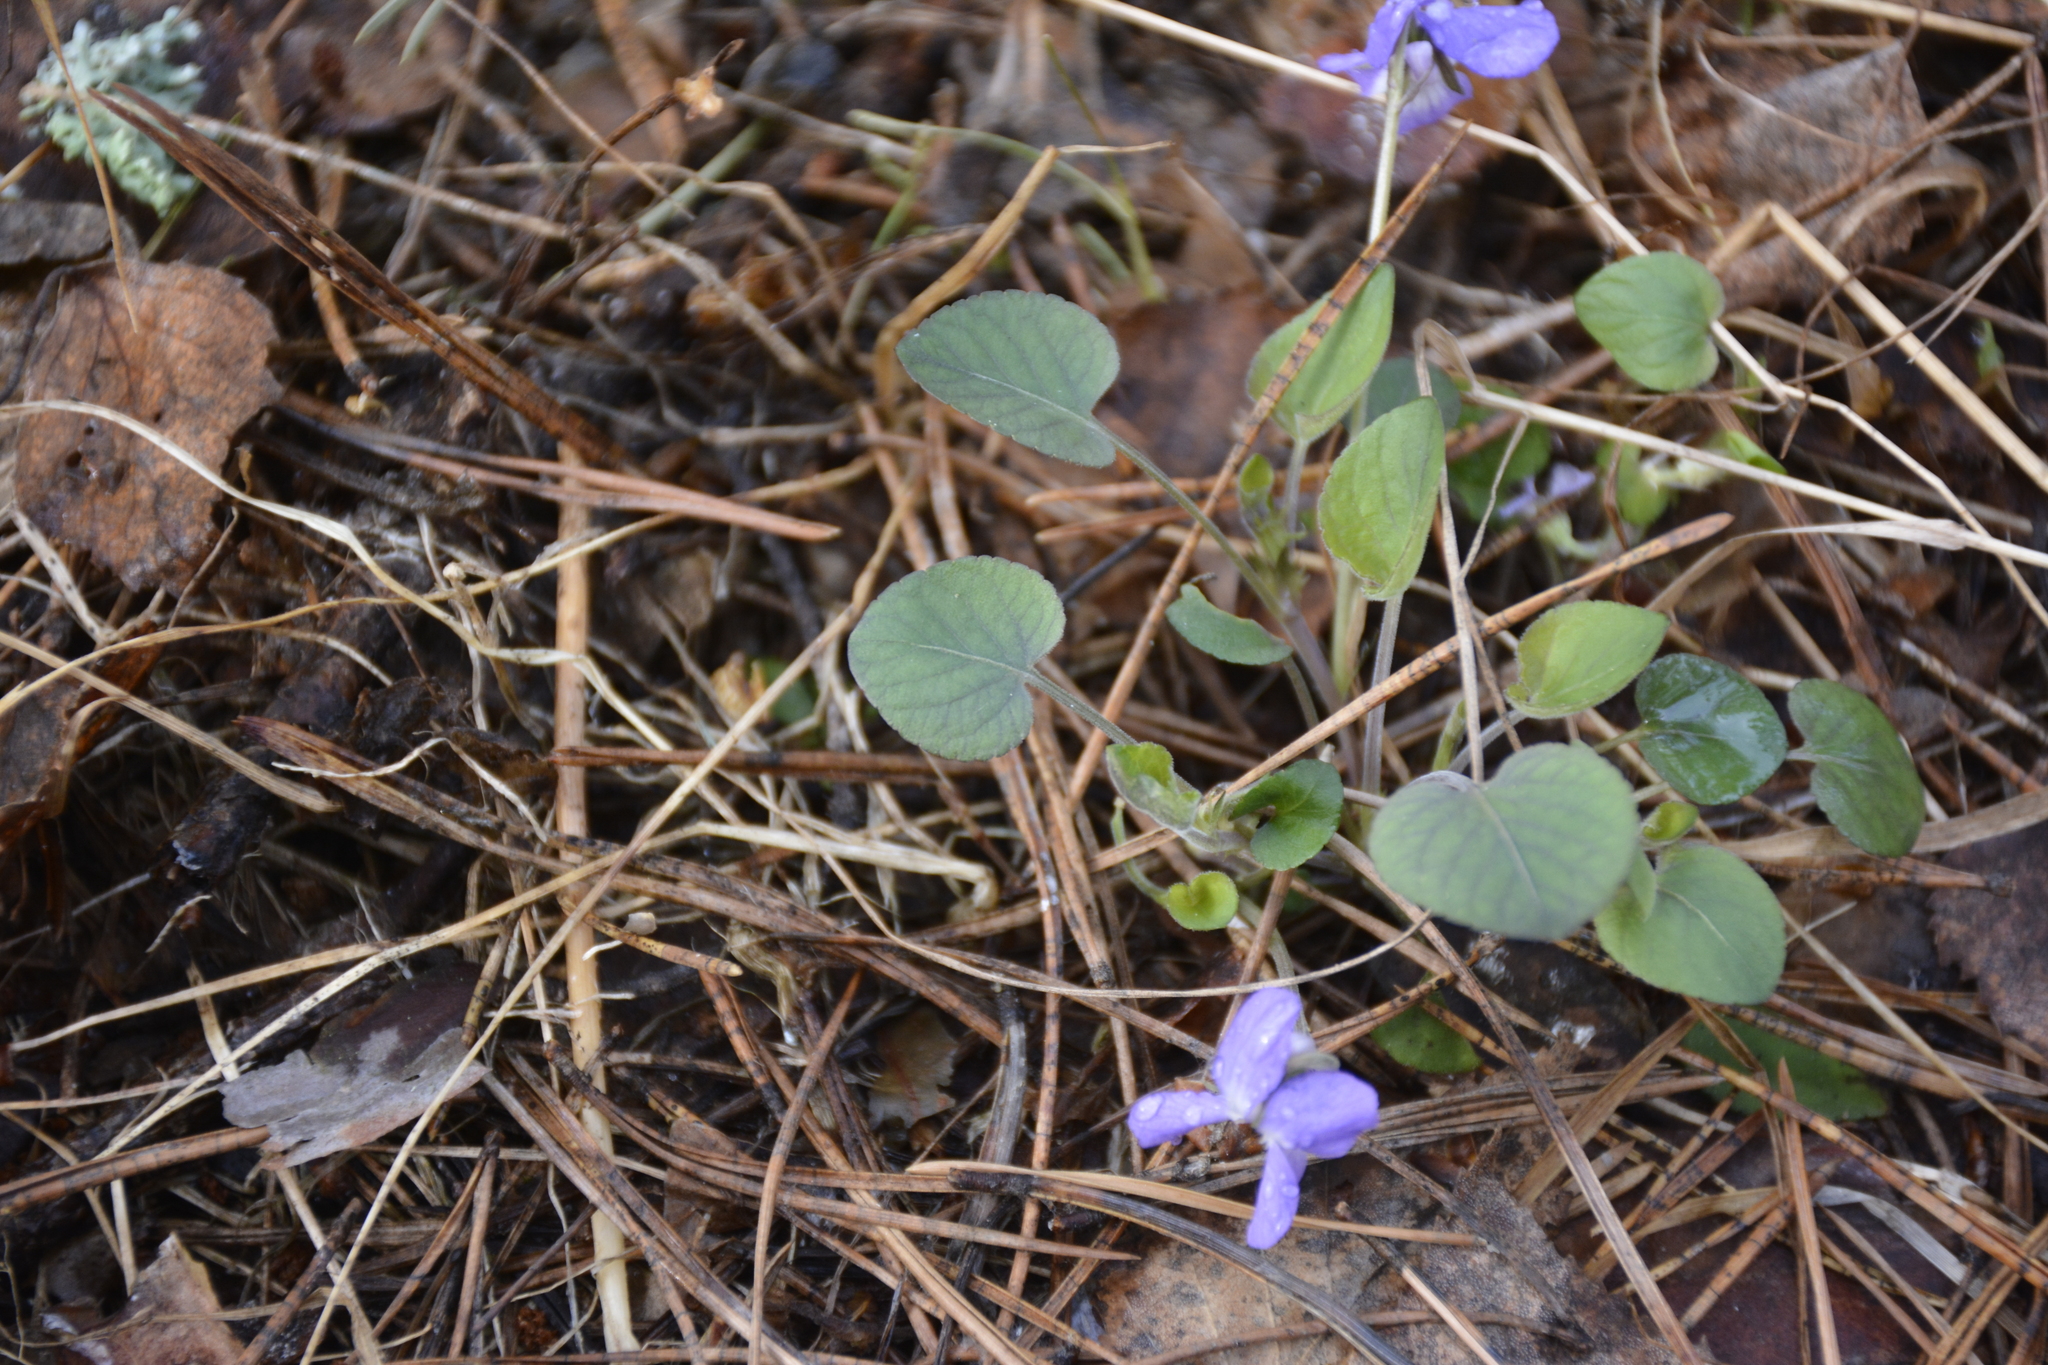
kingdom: Plantae
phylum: Tracheophyta
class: Magnoliopsida
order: Malpighiales
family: Violaceae
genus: Viola
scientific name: Viola rupestris
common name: Teesdale violet
